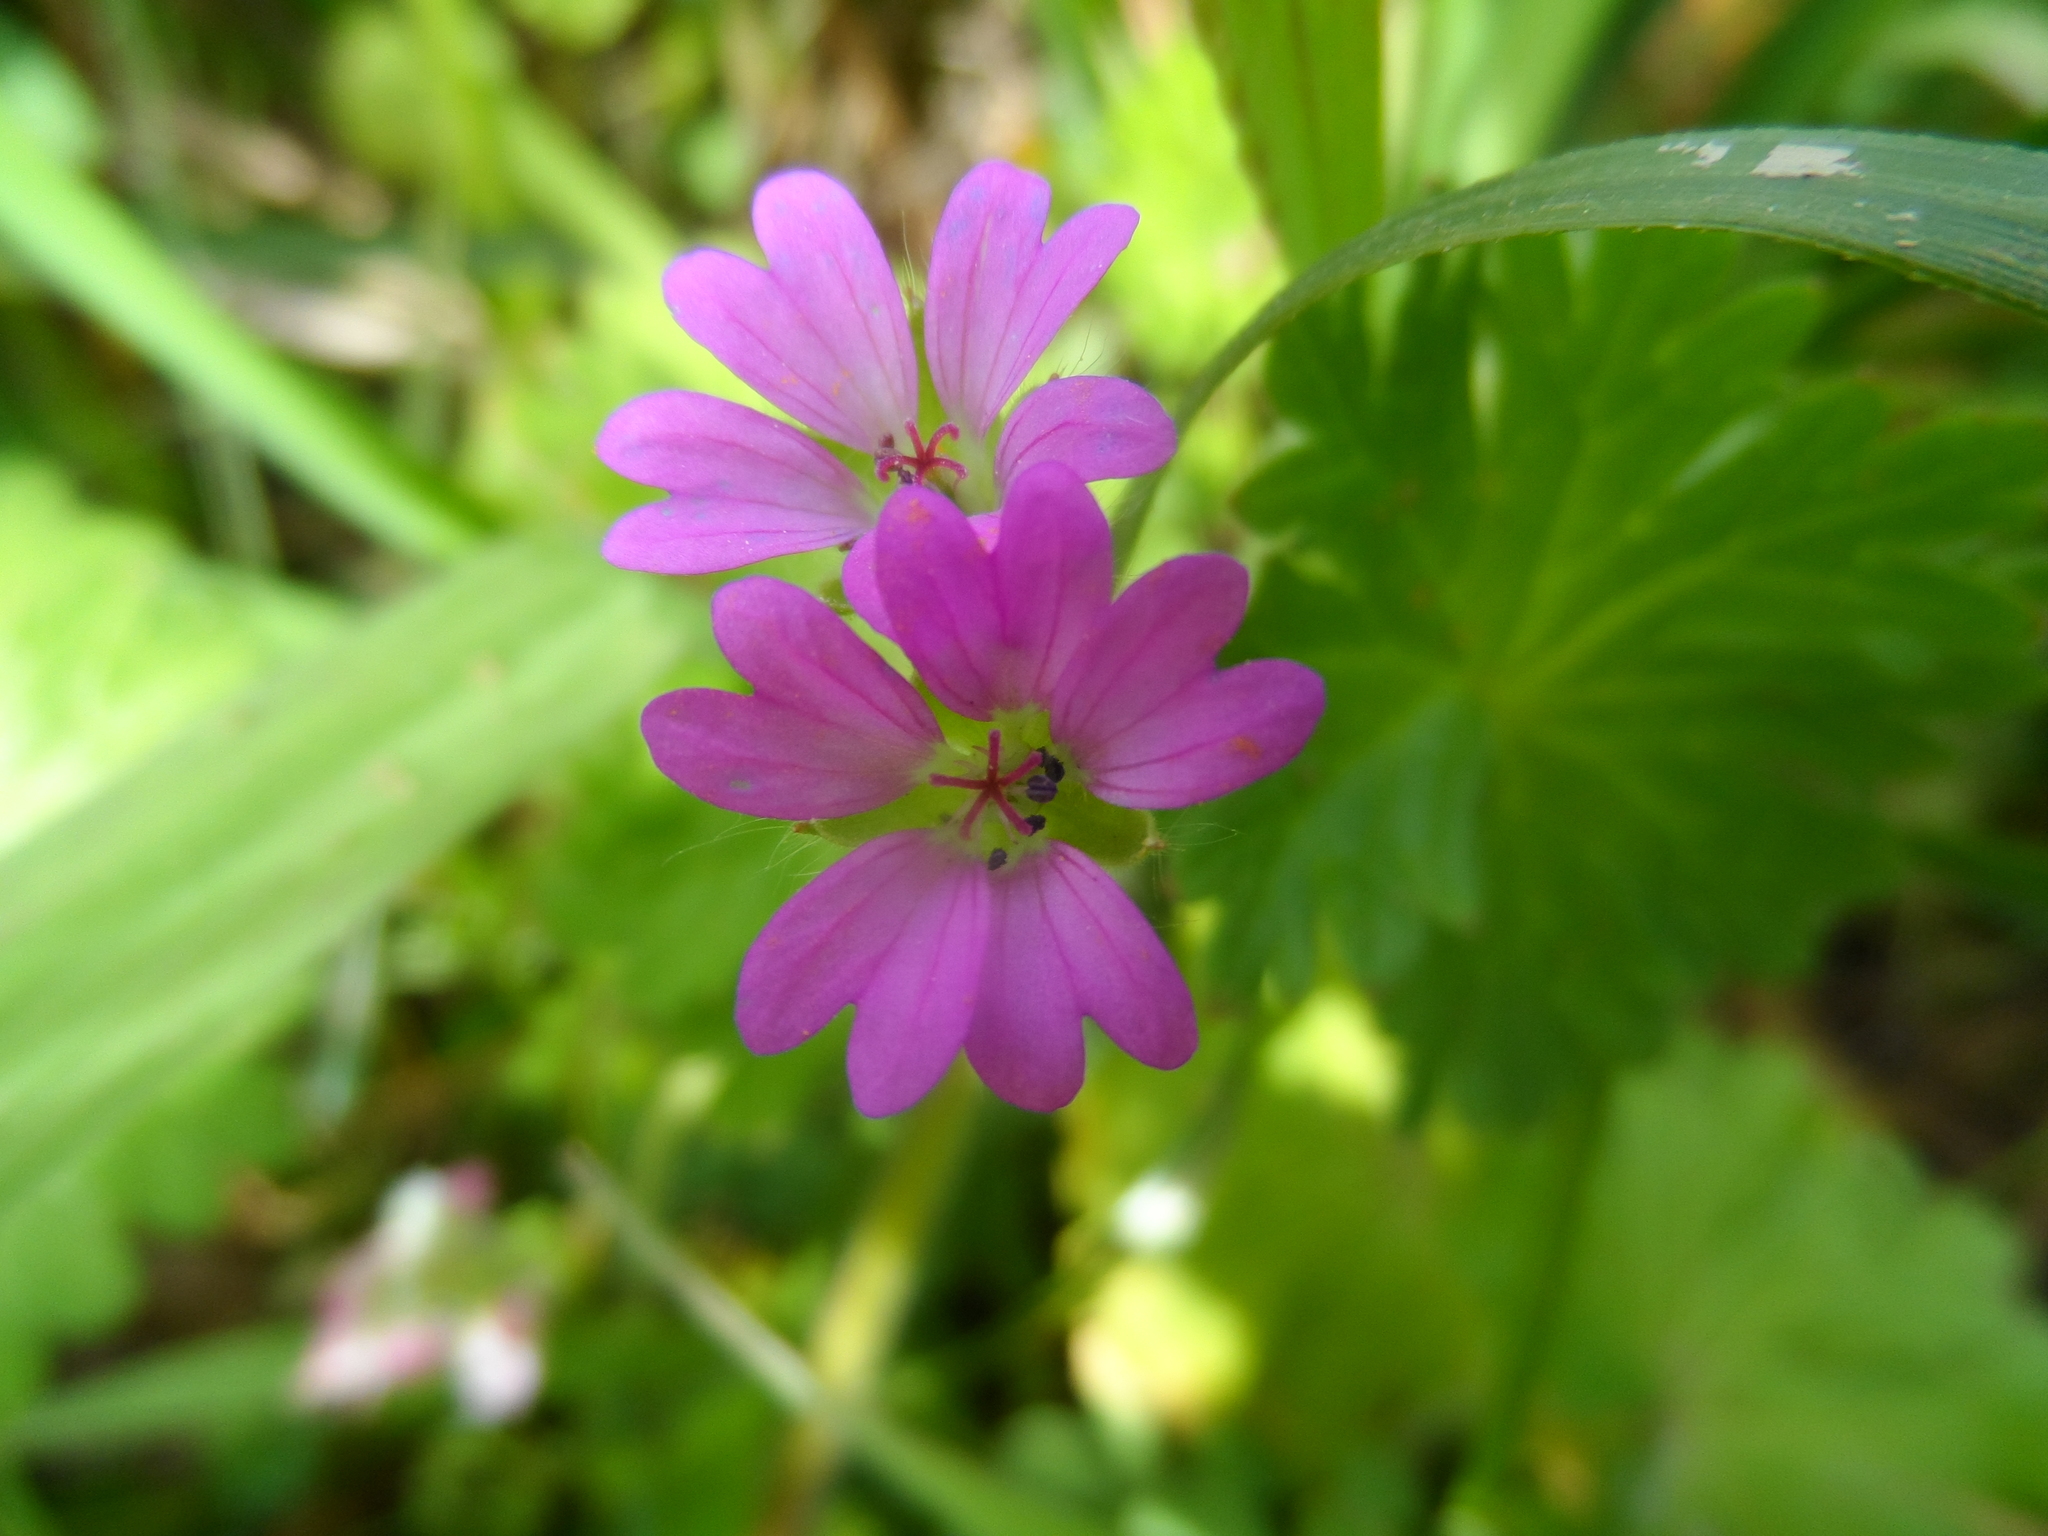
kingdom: Plantae
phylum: Tracheophyta
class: Magnoliopsida
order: Geraniales
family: Geraniaceae
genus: Geranium
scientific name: Geranium molle
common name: Dove's-foot crane's-bill
